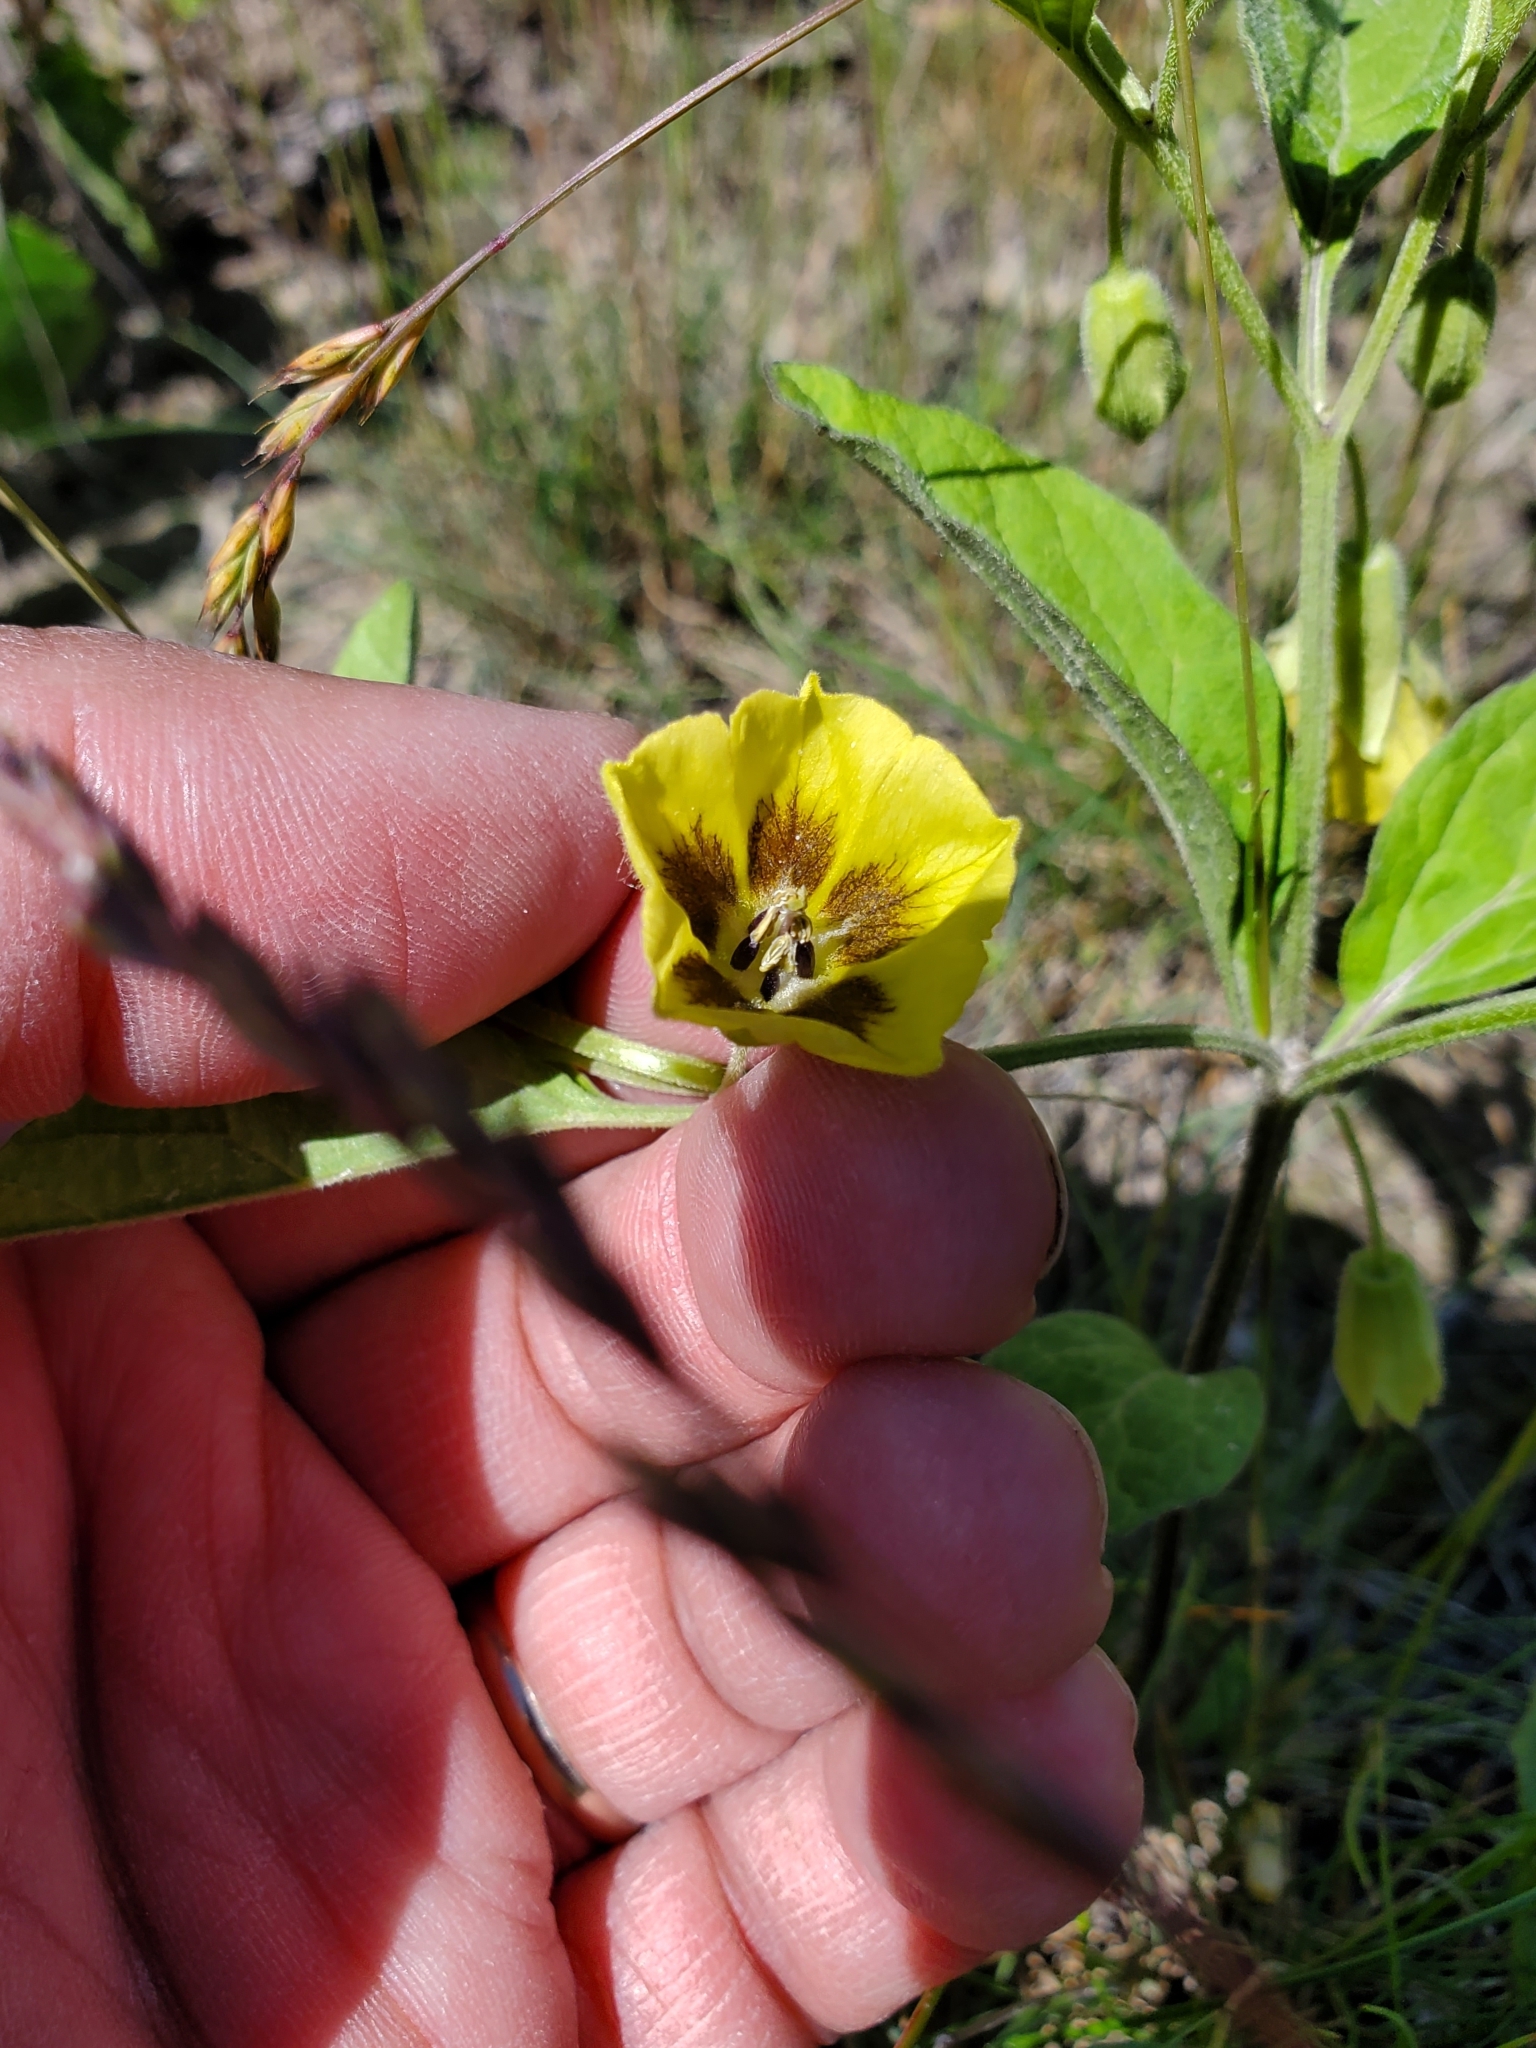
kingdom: Plantae
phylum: Tracheophyta
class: Magnoliopsida
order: Solanales
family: Solanaceae
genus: Physalis
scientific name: Physalis virginiana
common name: Virginia ground-cherry
